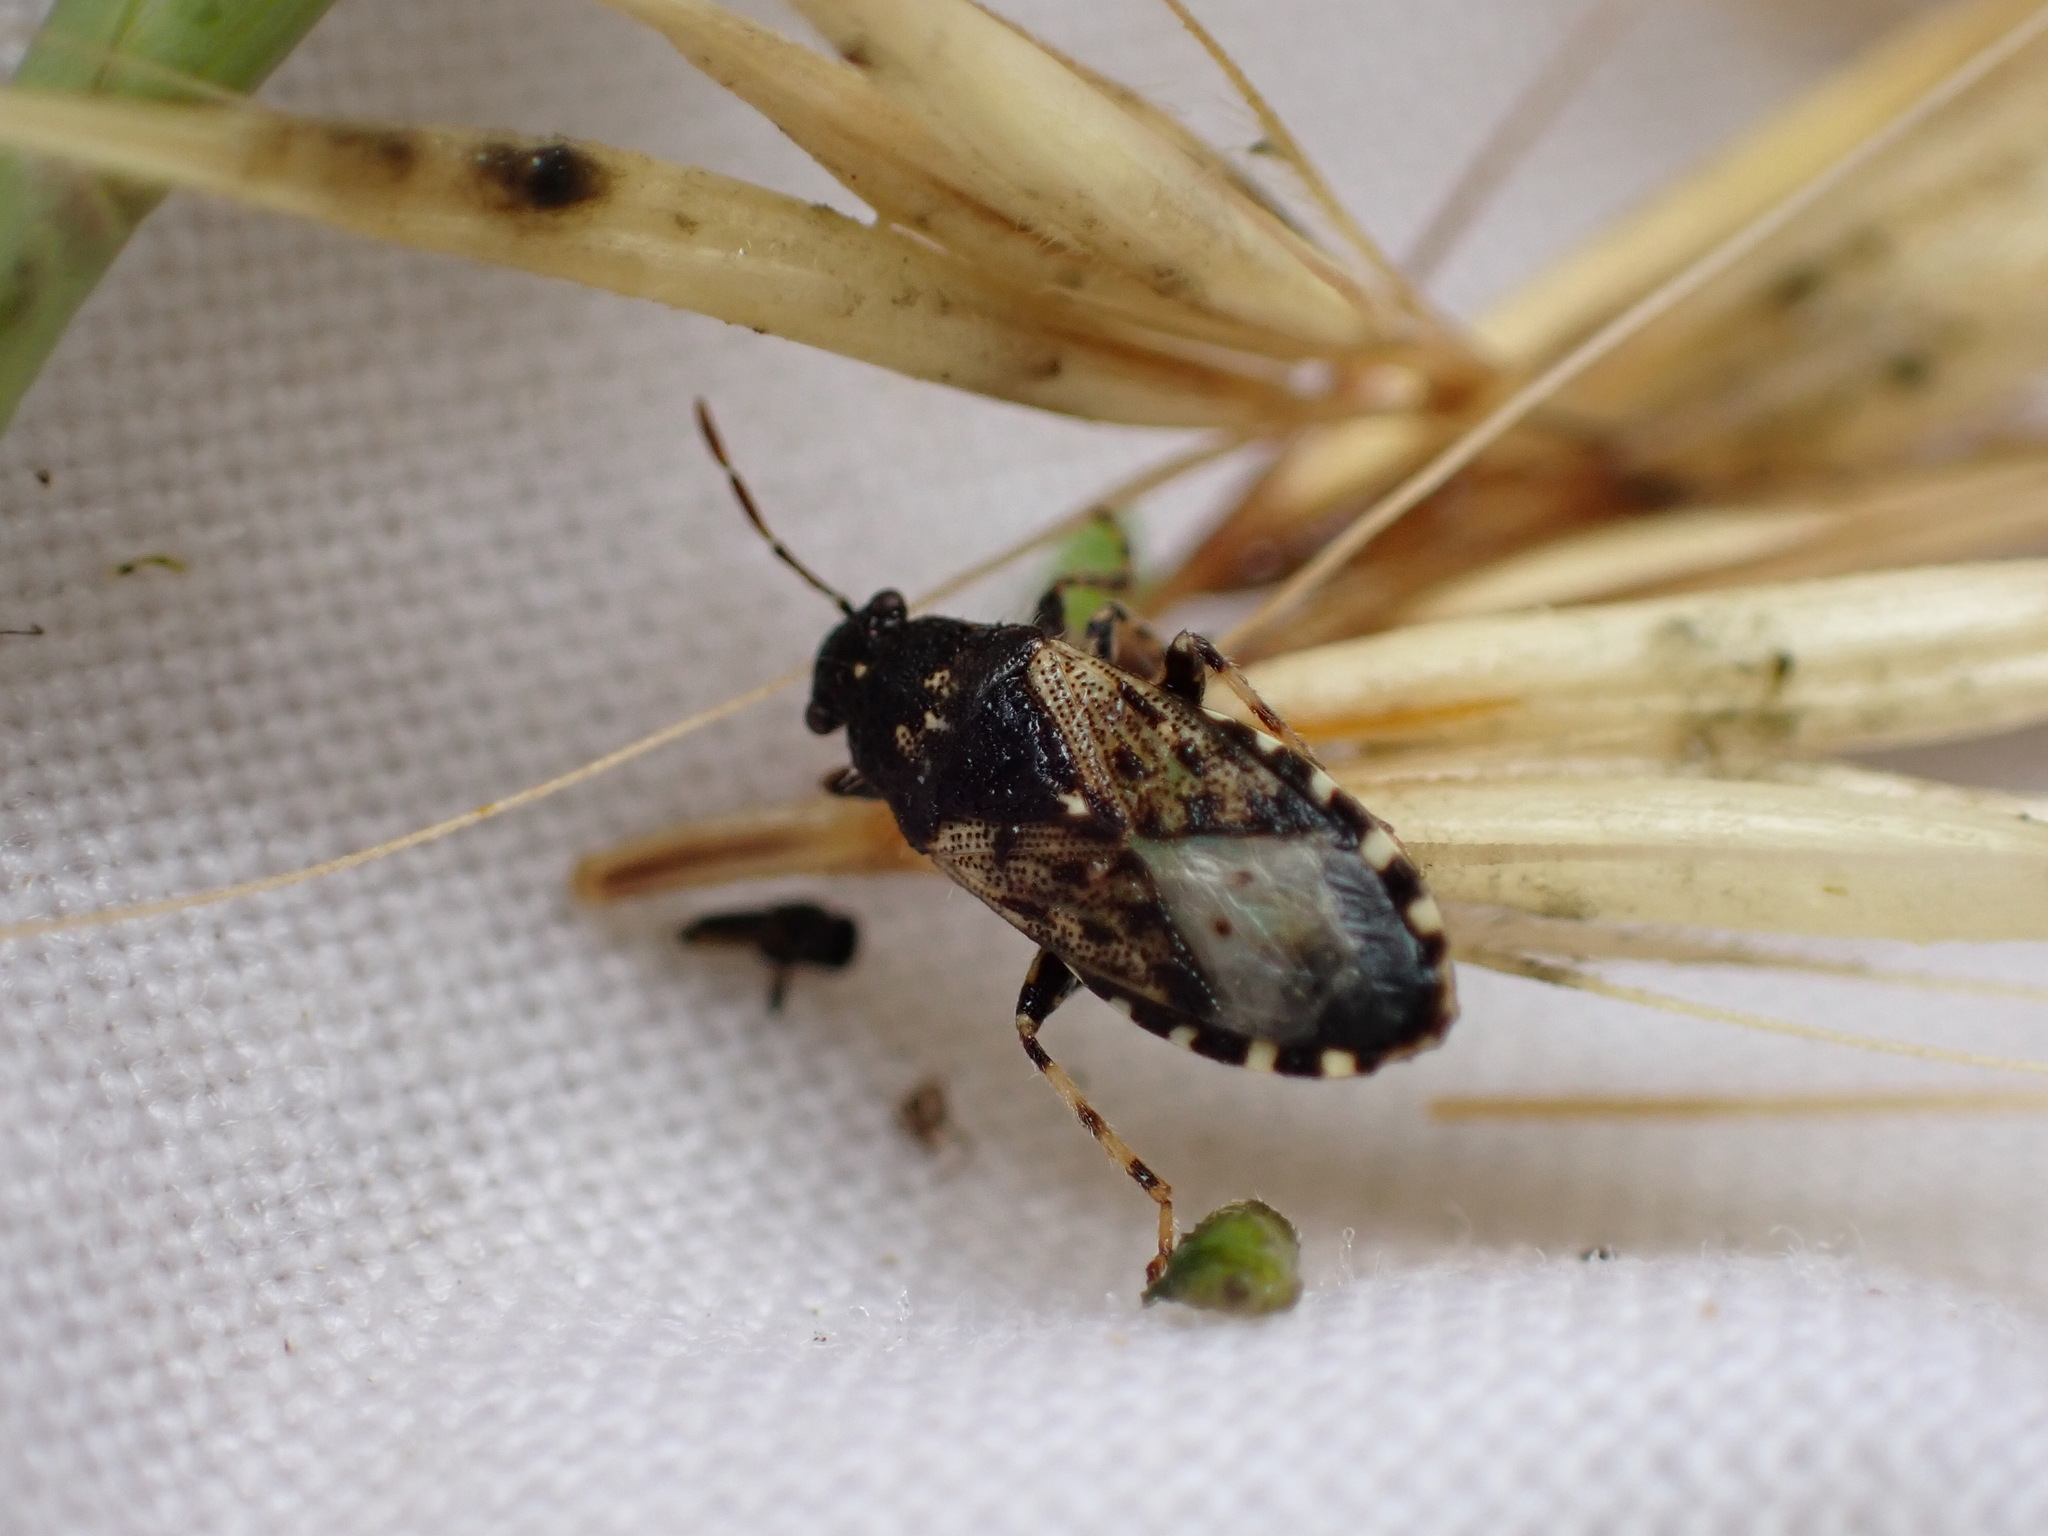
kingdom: Animalia
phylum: Arthropoda
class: Insecta
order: Hemiptera
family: Heterogastridae
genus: Heterogaster
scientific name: Heterogaster urticae
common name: Seed bug
